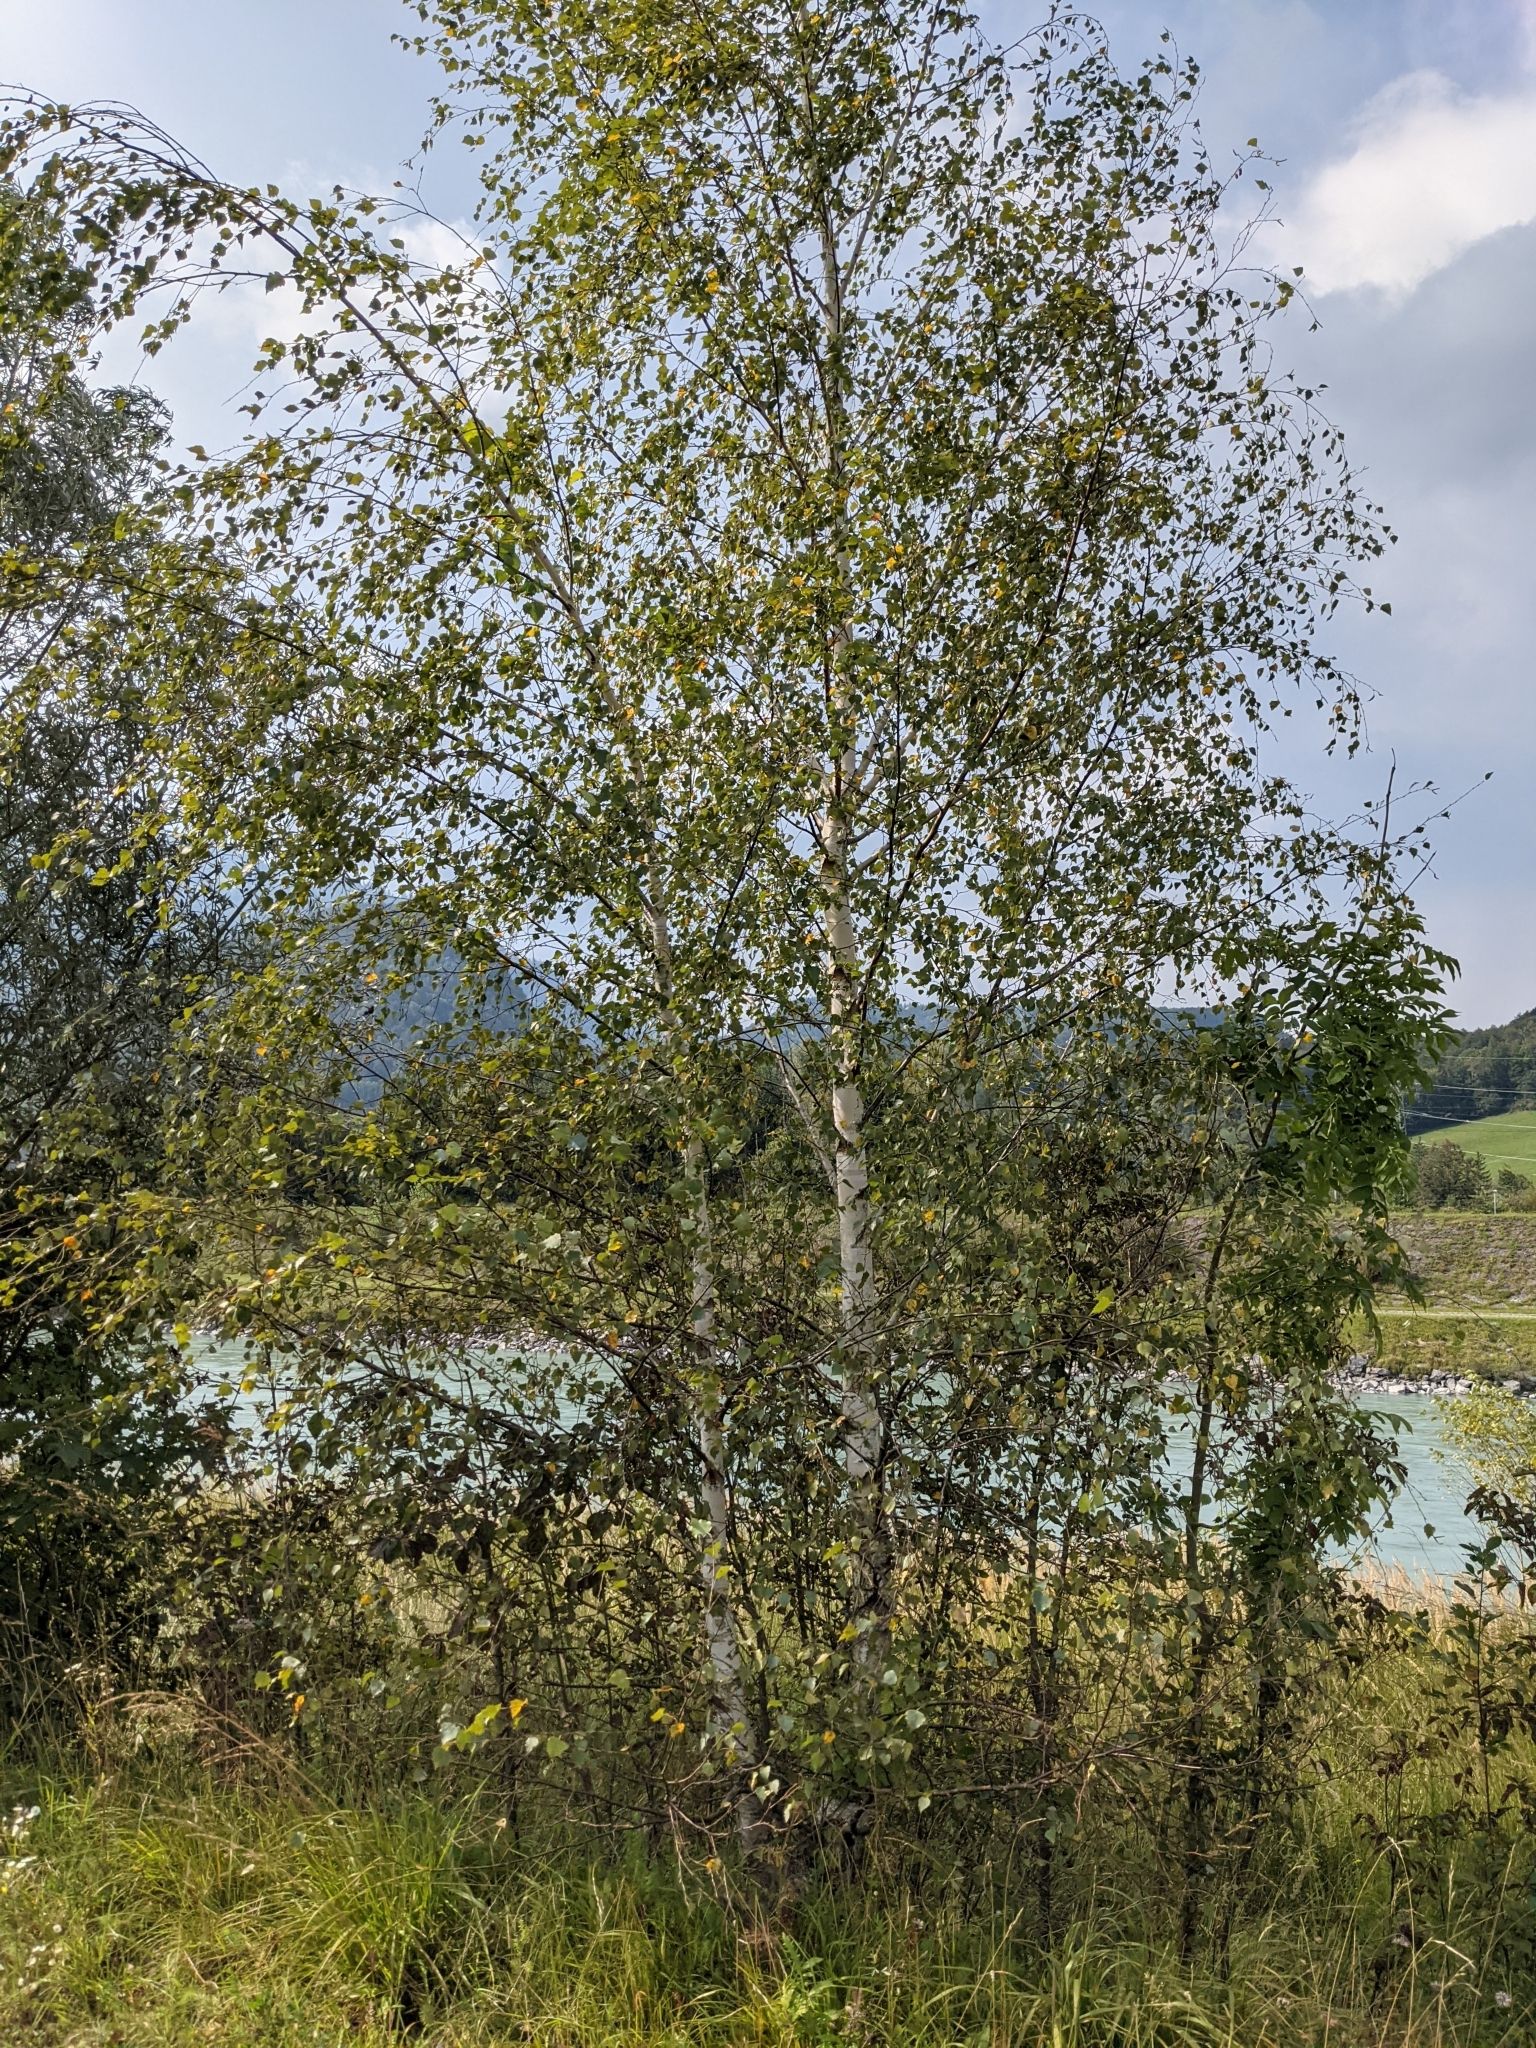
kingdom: Plantae
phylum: Tracheophyta
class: Magnoliopsida
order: Fagales
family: Betulaceae
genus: Betula
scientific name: Betula pendula
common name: Silver birch
